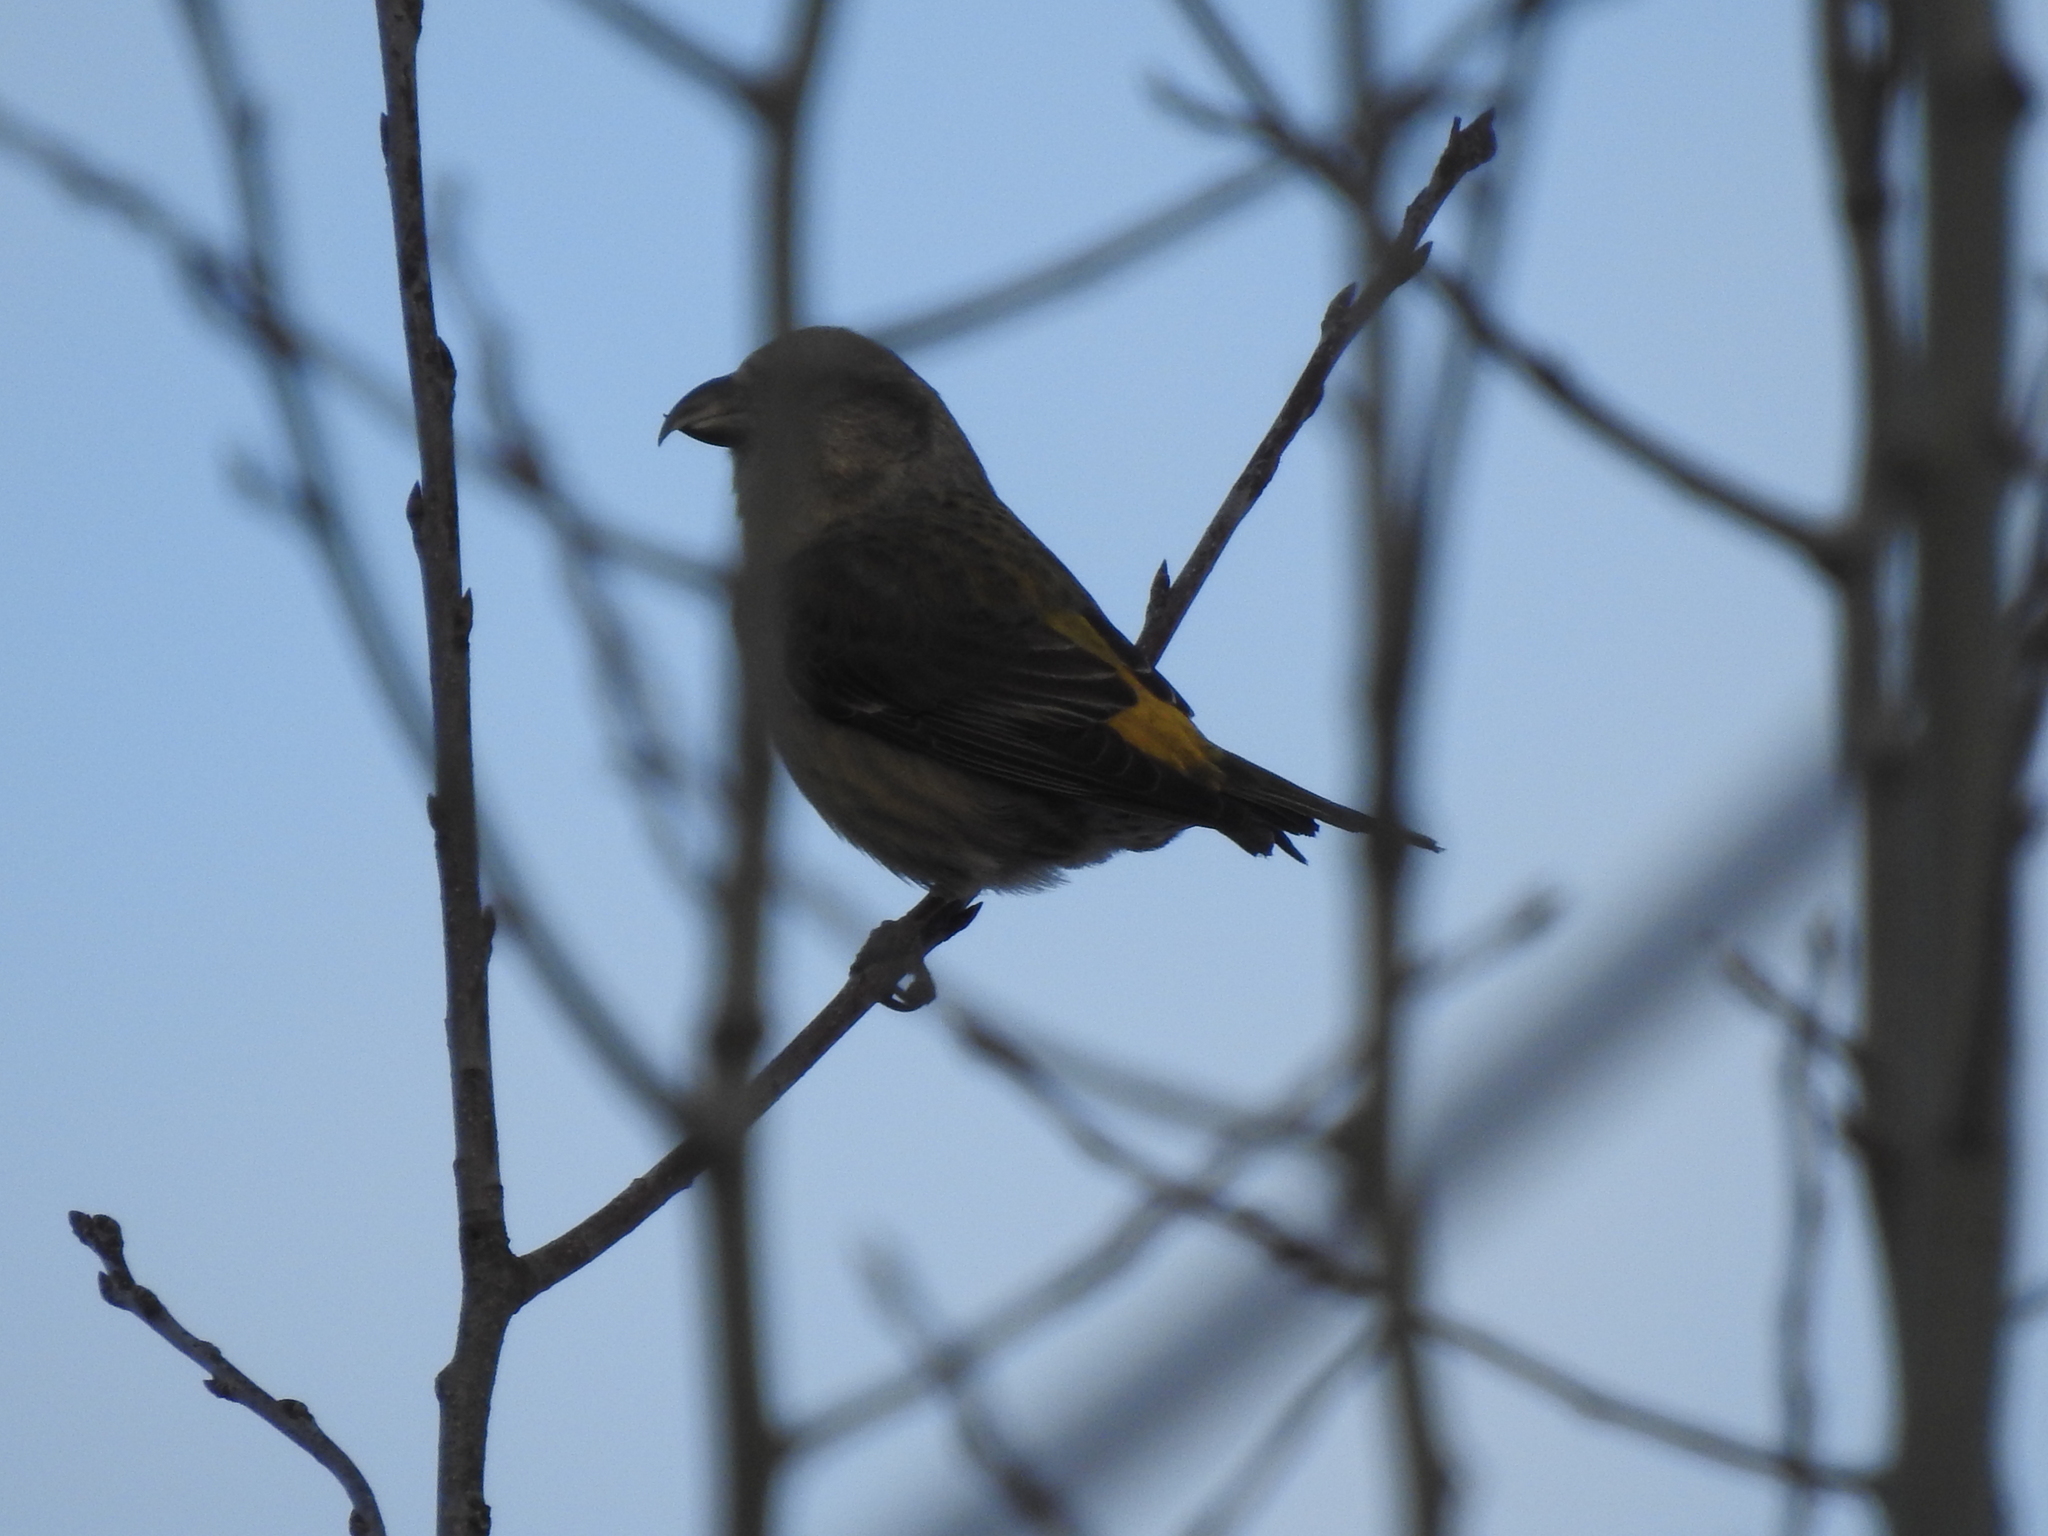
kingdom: Animalia
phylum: Chordata
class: Aves
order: Passeriformes
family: Fringillidae
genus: Loxia
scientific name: Loxia curvirostra
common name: Red crossbill
